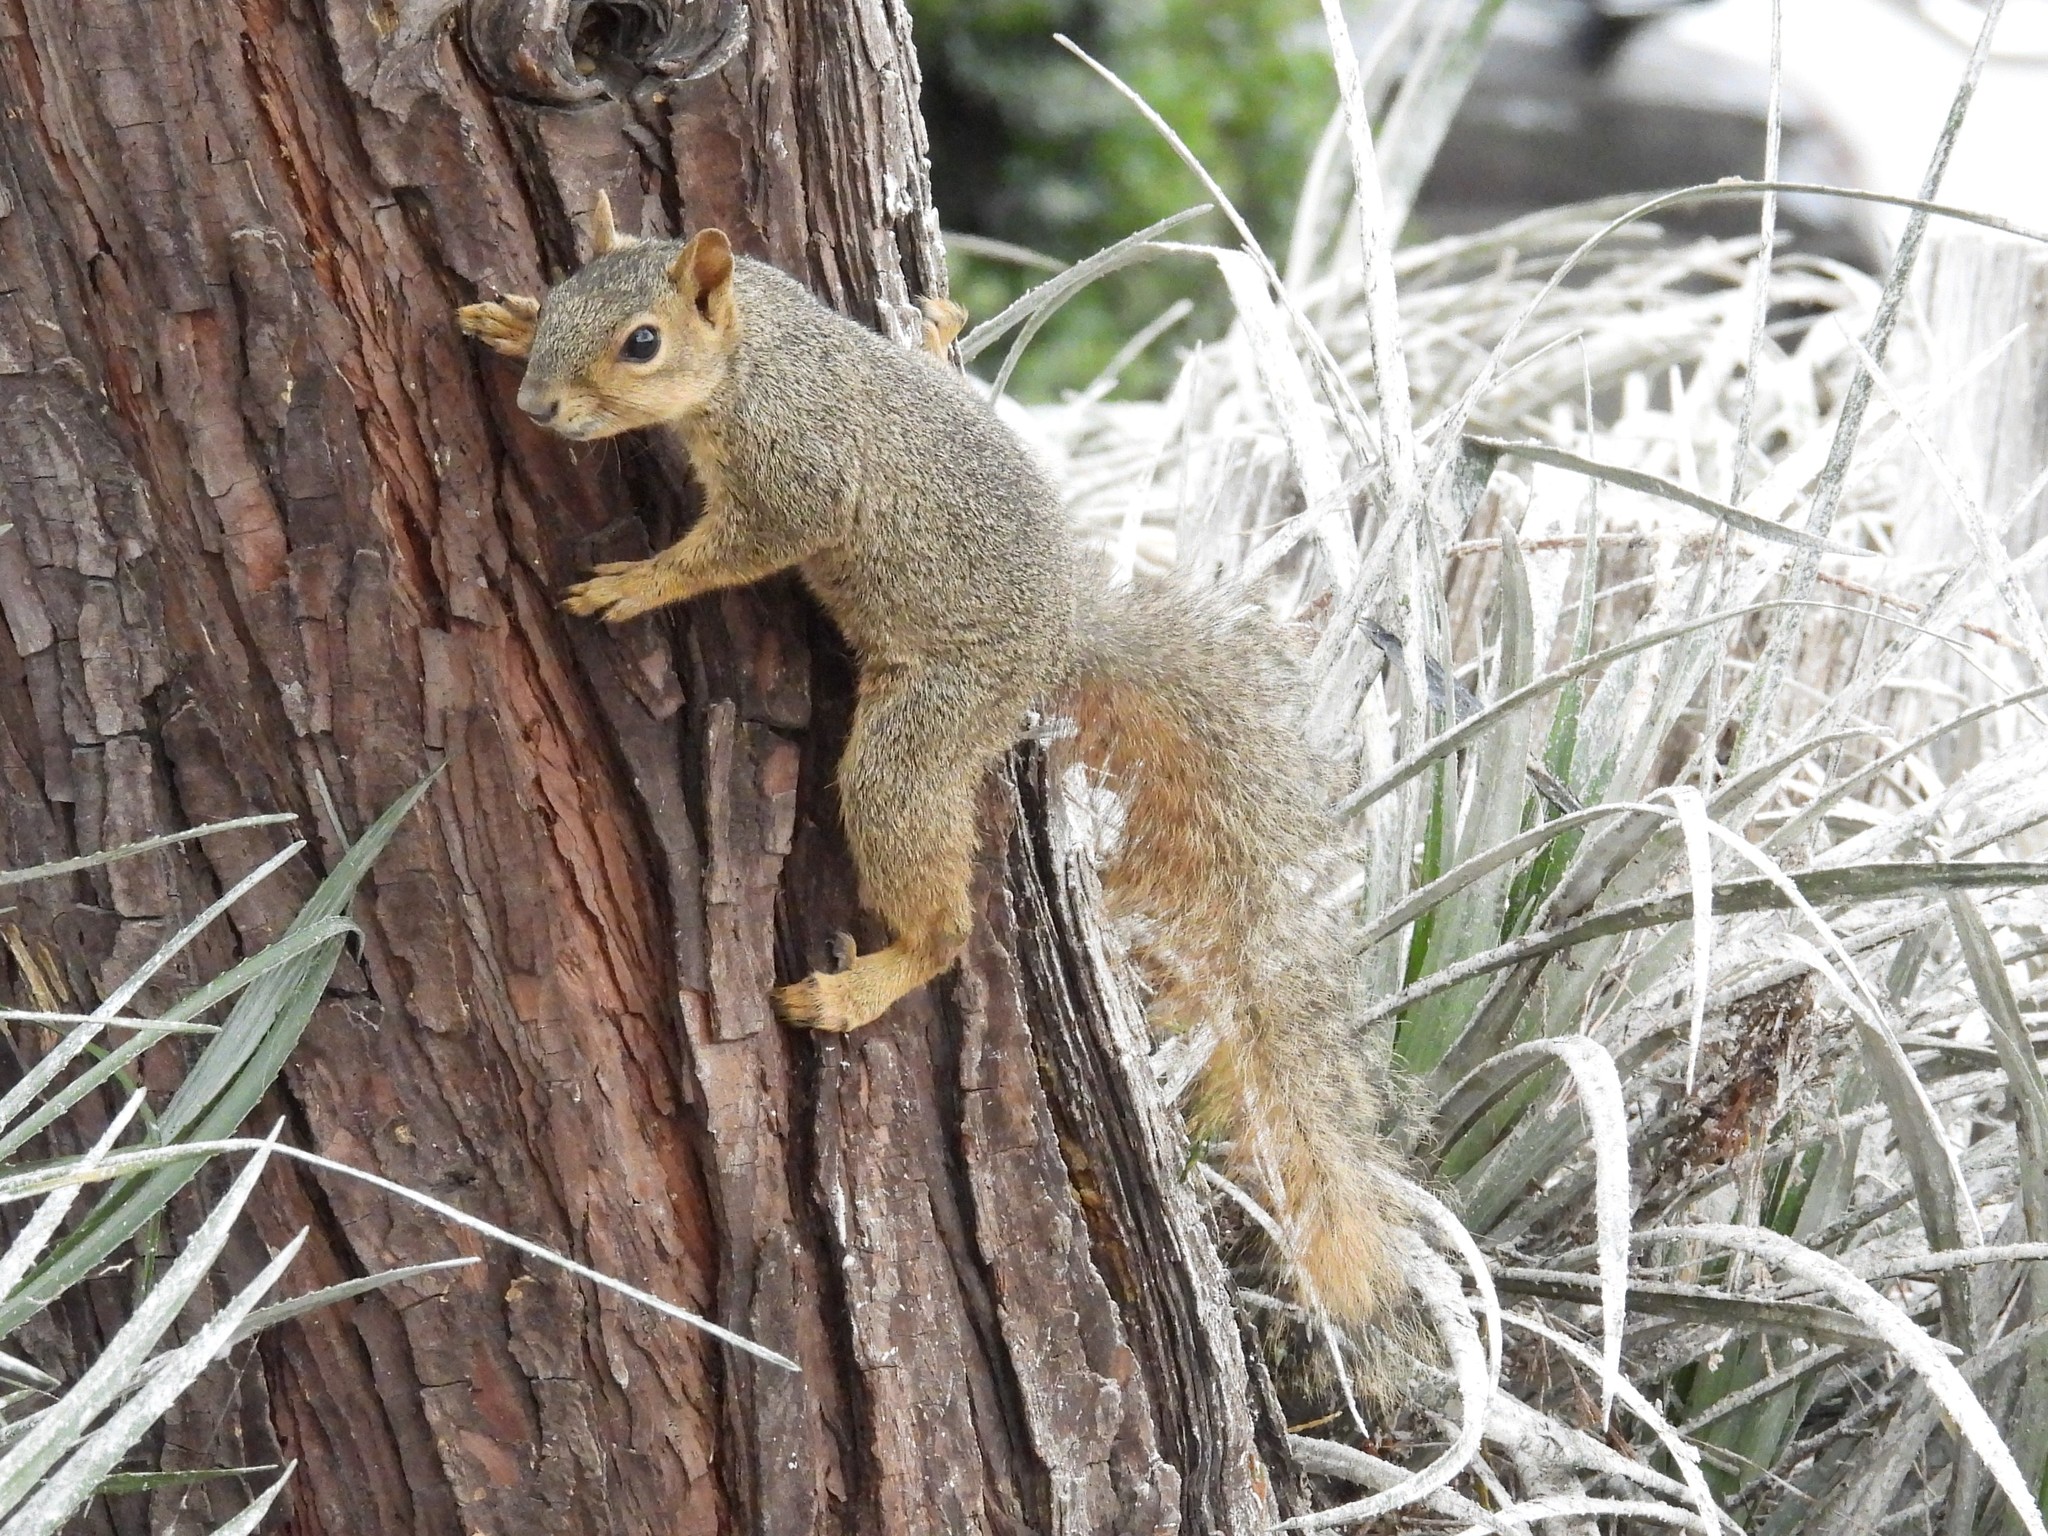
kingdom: Animalia
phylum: Chordata
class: Mammalia
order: Rodentia
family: Sciuridae
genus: Sciurus
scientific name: Sciurus niger
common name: Fox squirrel
